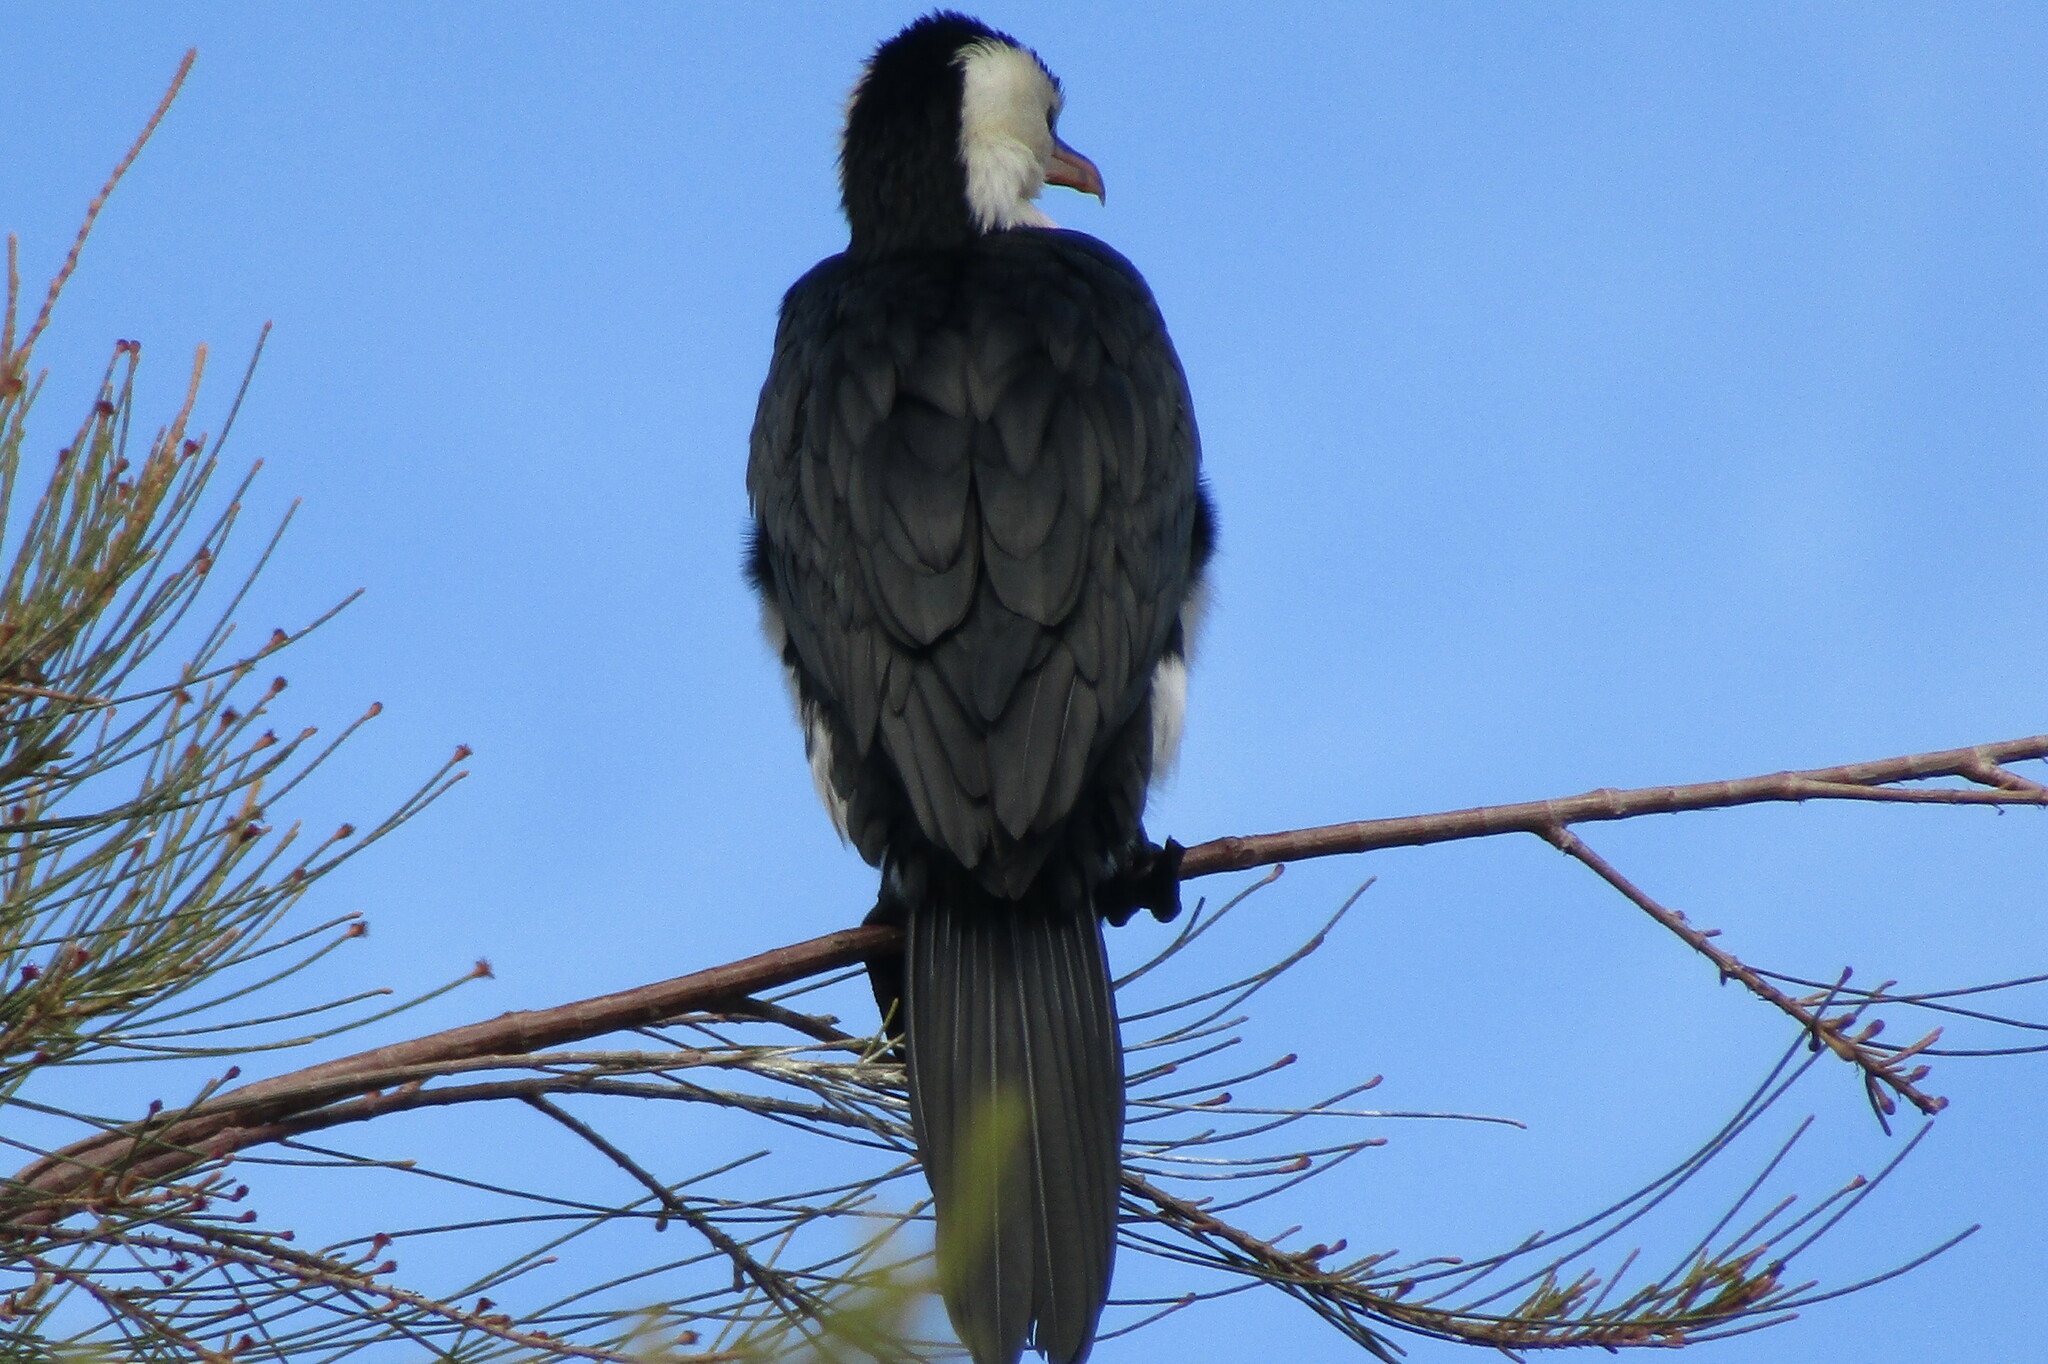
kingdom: Animalia
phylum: Chordata
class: Aves
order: Suliformes
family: Phalacrocoracidae
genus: Microcarbo
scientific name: Microcarbo melanoleucos
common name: Little pied cormorant
